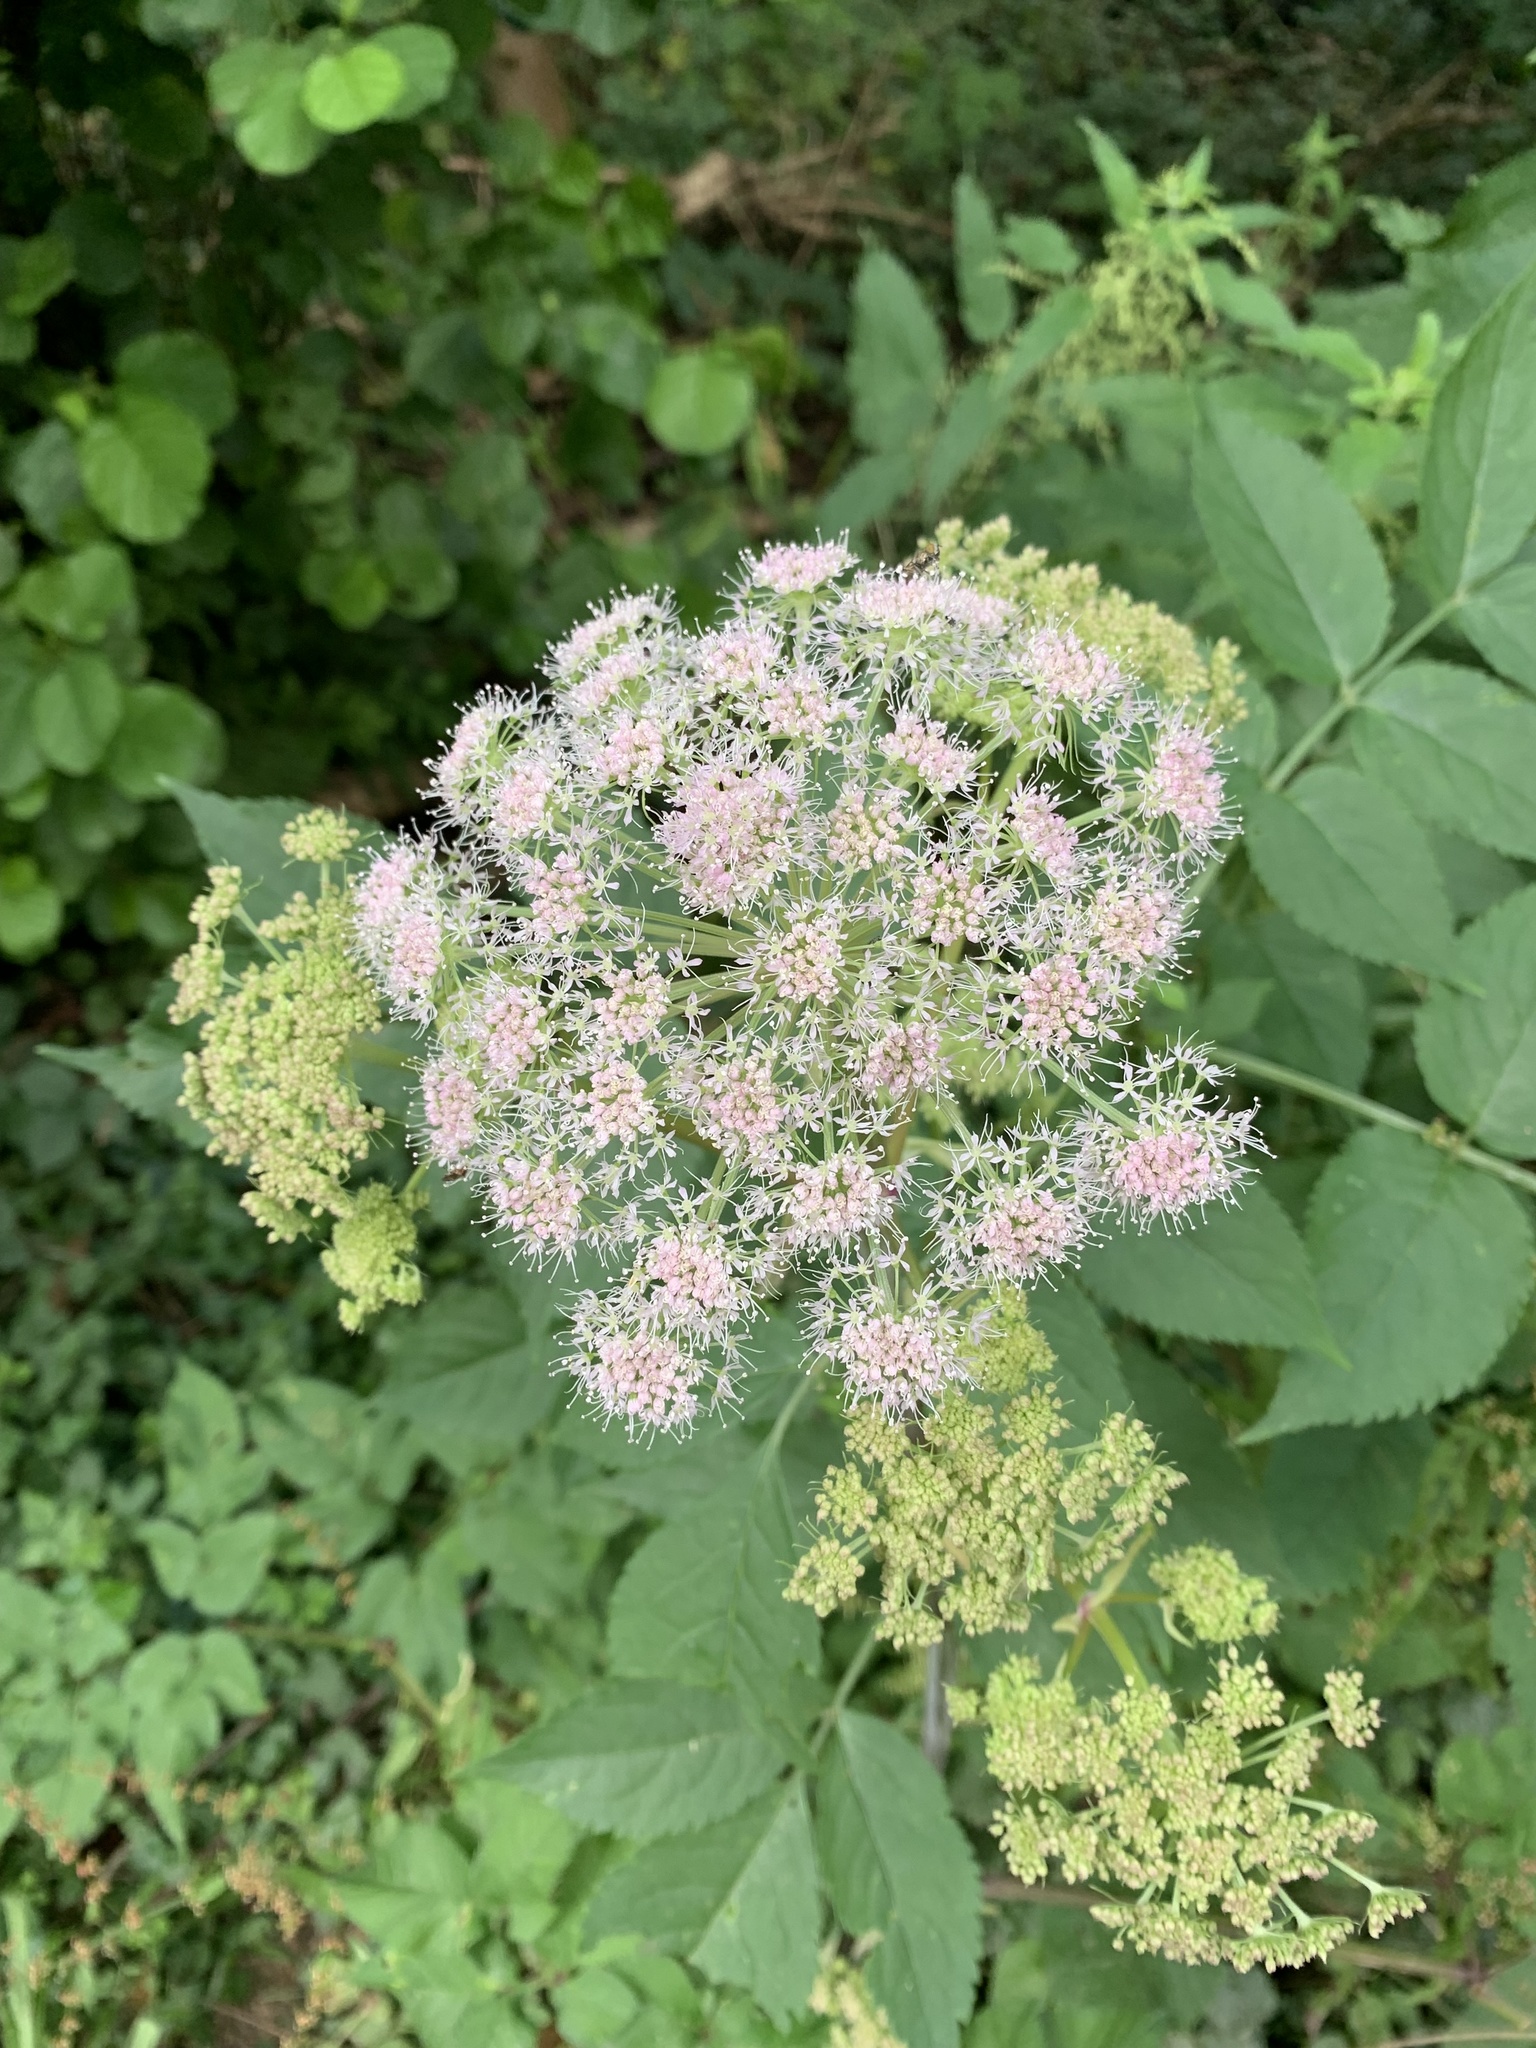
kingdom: Plantae
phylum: Tracheophyta
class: Magnoliopsida
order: Apiales
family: Apiaceae
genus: Angelica
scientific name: Angelica sylvestris
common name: Wild angelica
